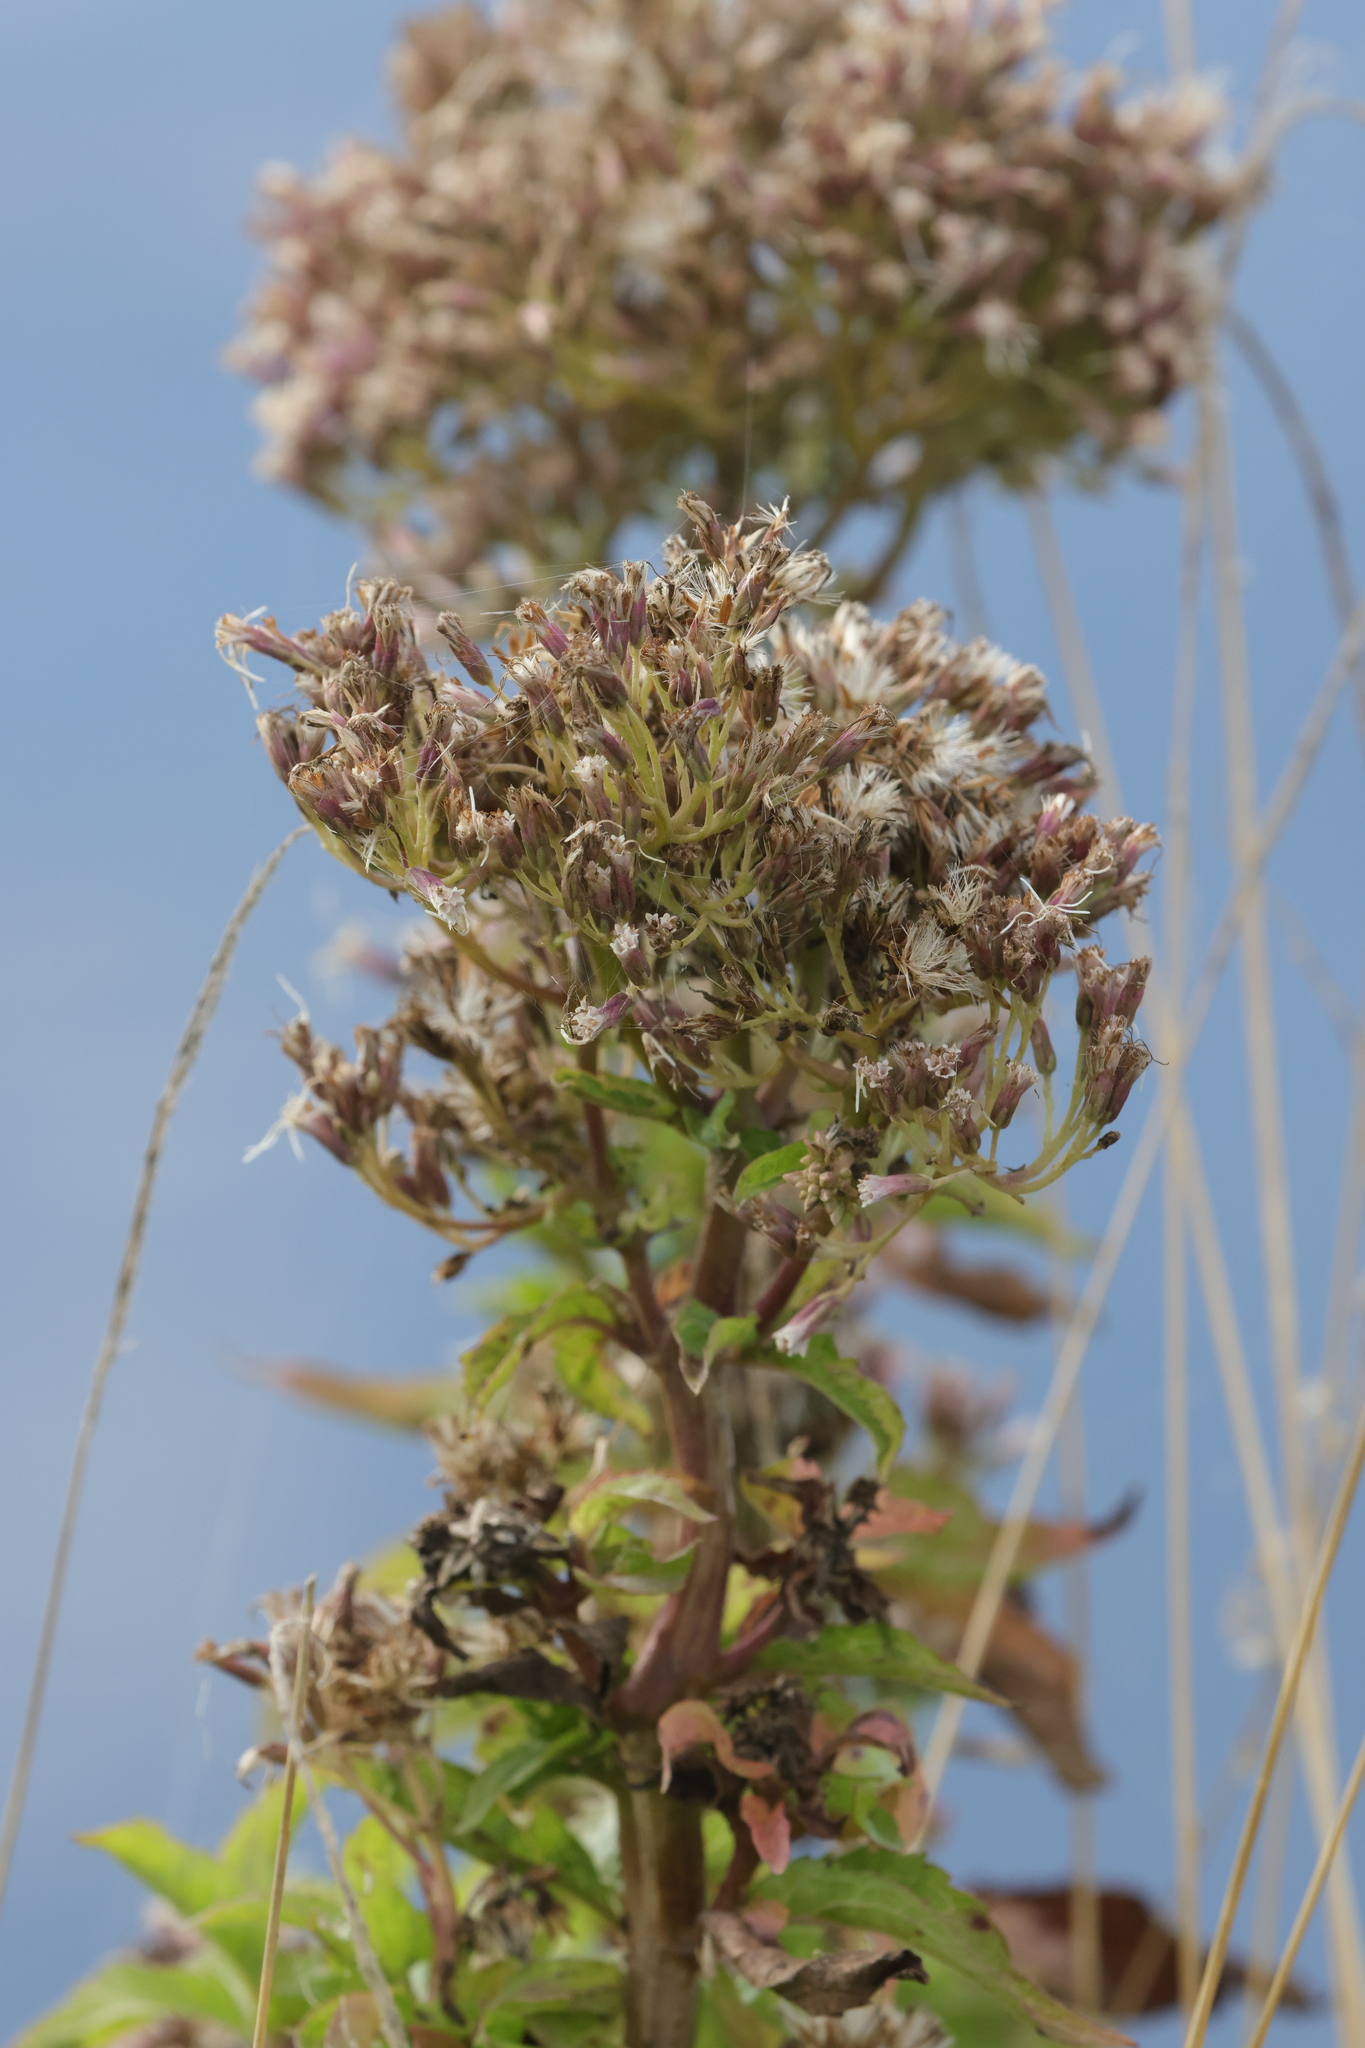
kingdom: Plantae
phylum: Tracheophyta
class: Magnoliopsida
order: Asterales
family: Asteraceae
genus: Eupatorium
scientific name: Eupatorium cannabinum
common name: Hemp-agrimony
